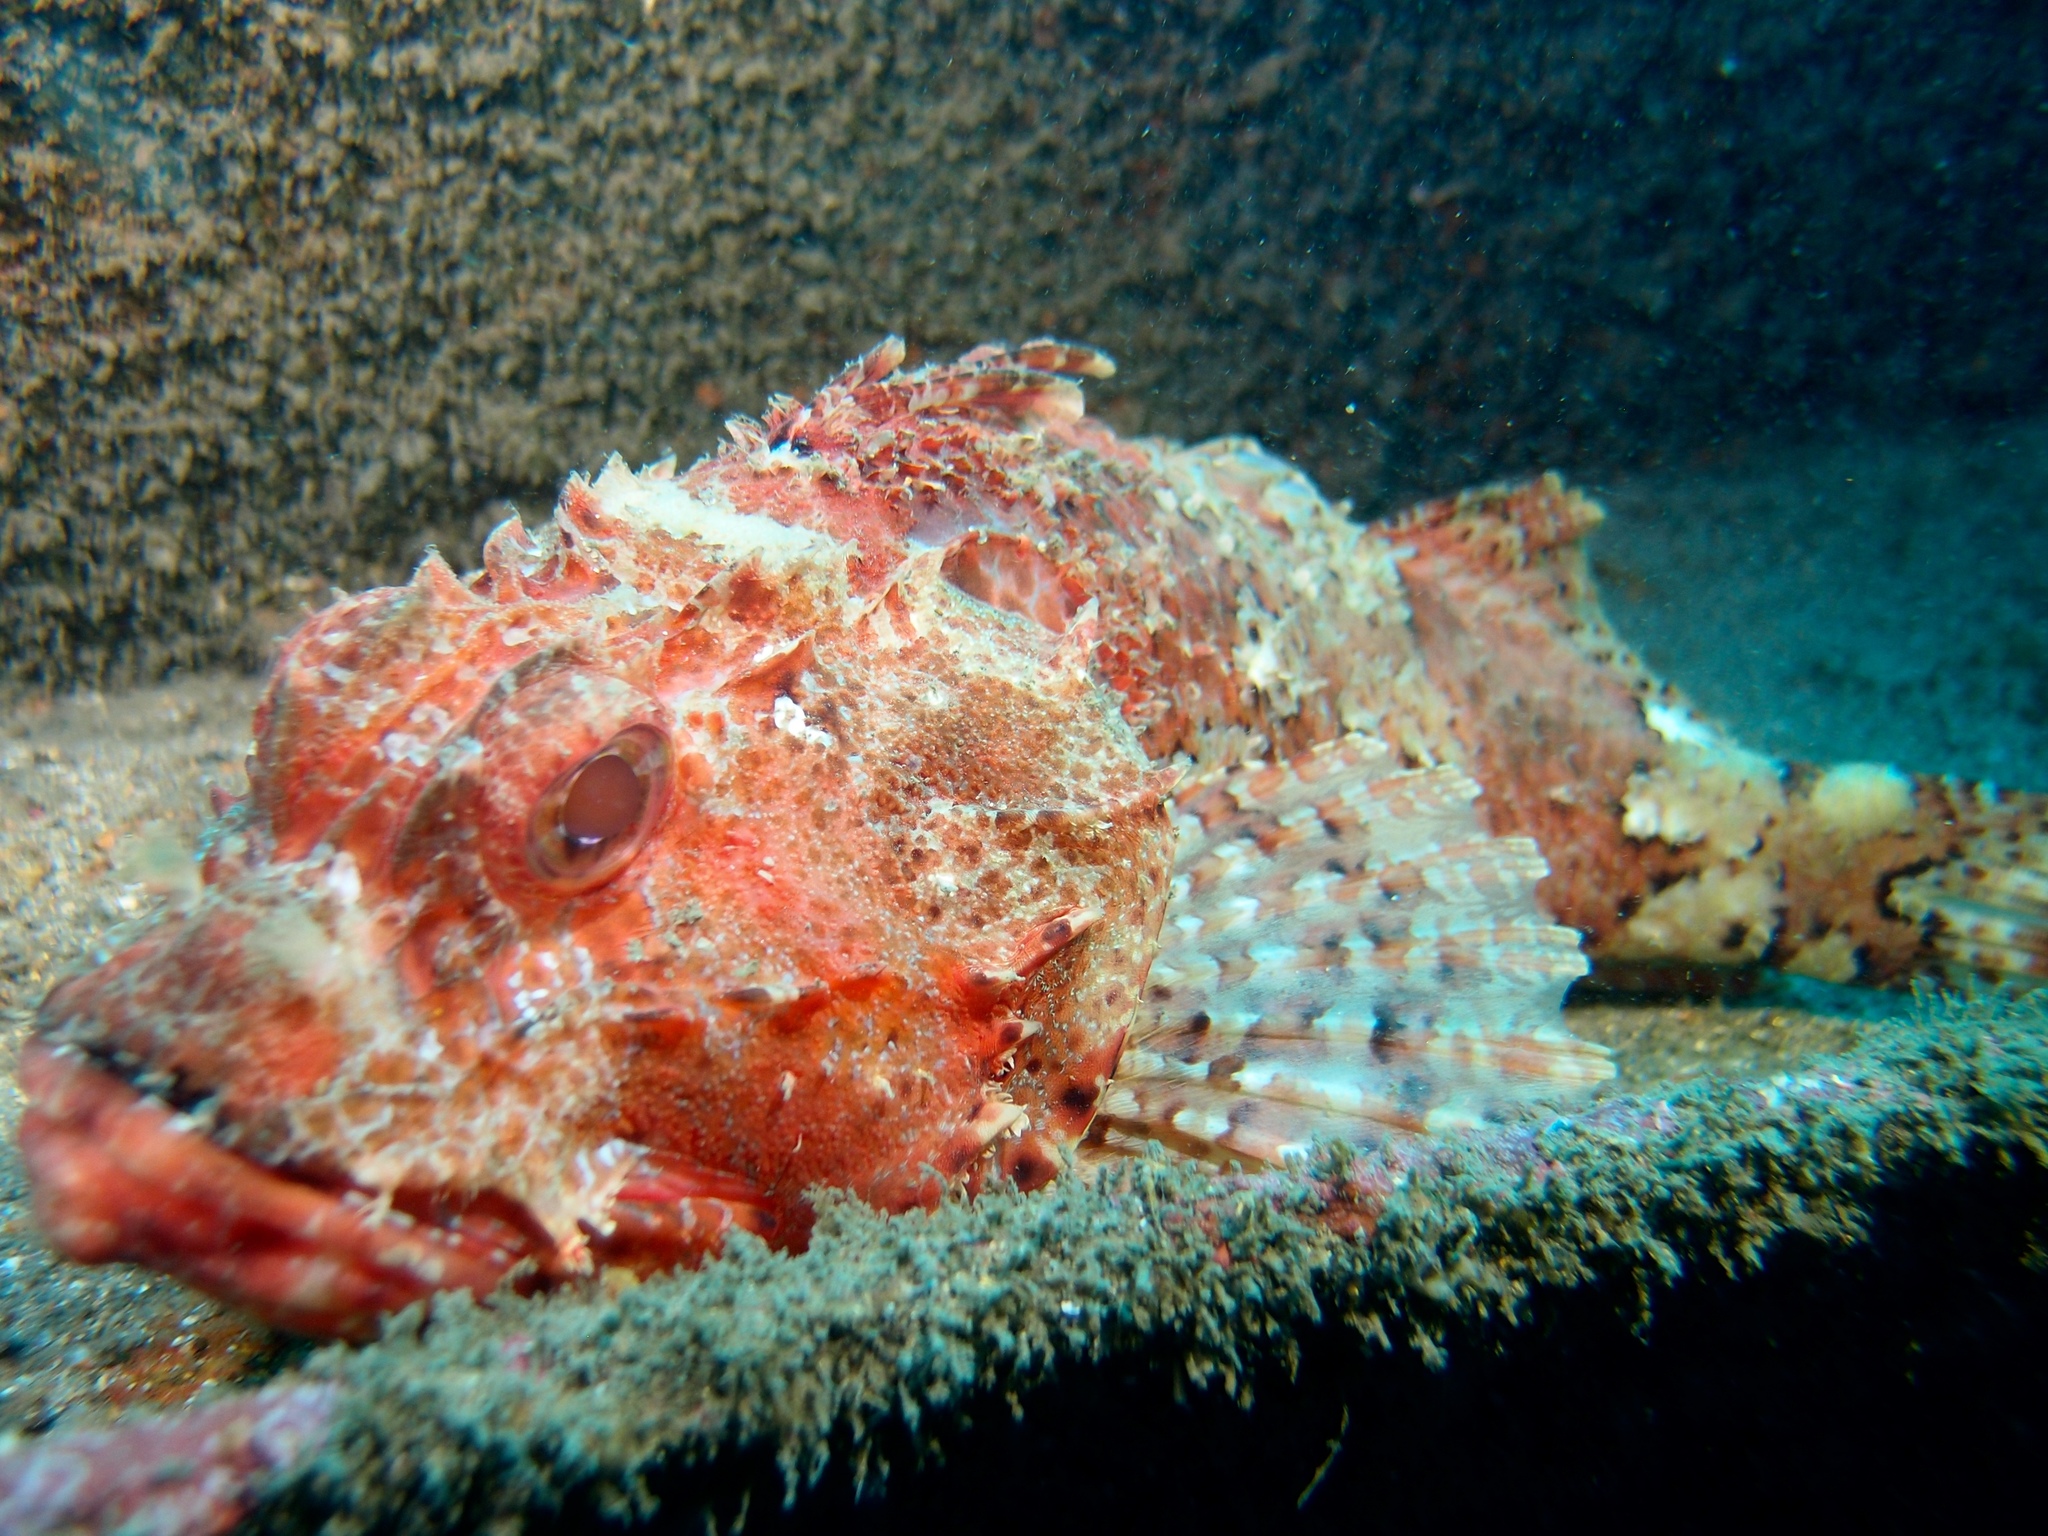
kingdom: Animalia
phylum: Chordata
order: Scorpaeniformes
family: Scorpaenidae
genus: Scorpaena
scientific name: Scorpaena jacksoniensis
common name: Eastern red scorpionfish
